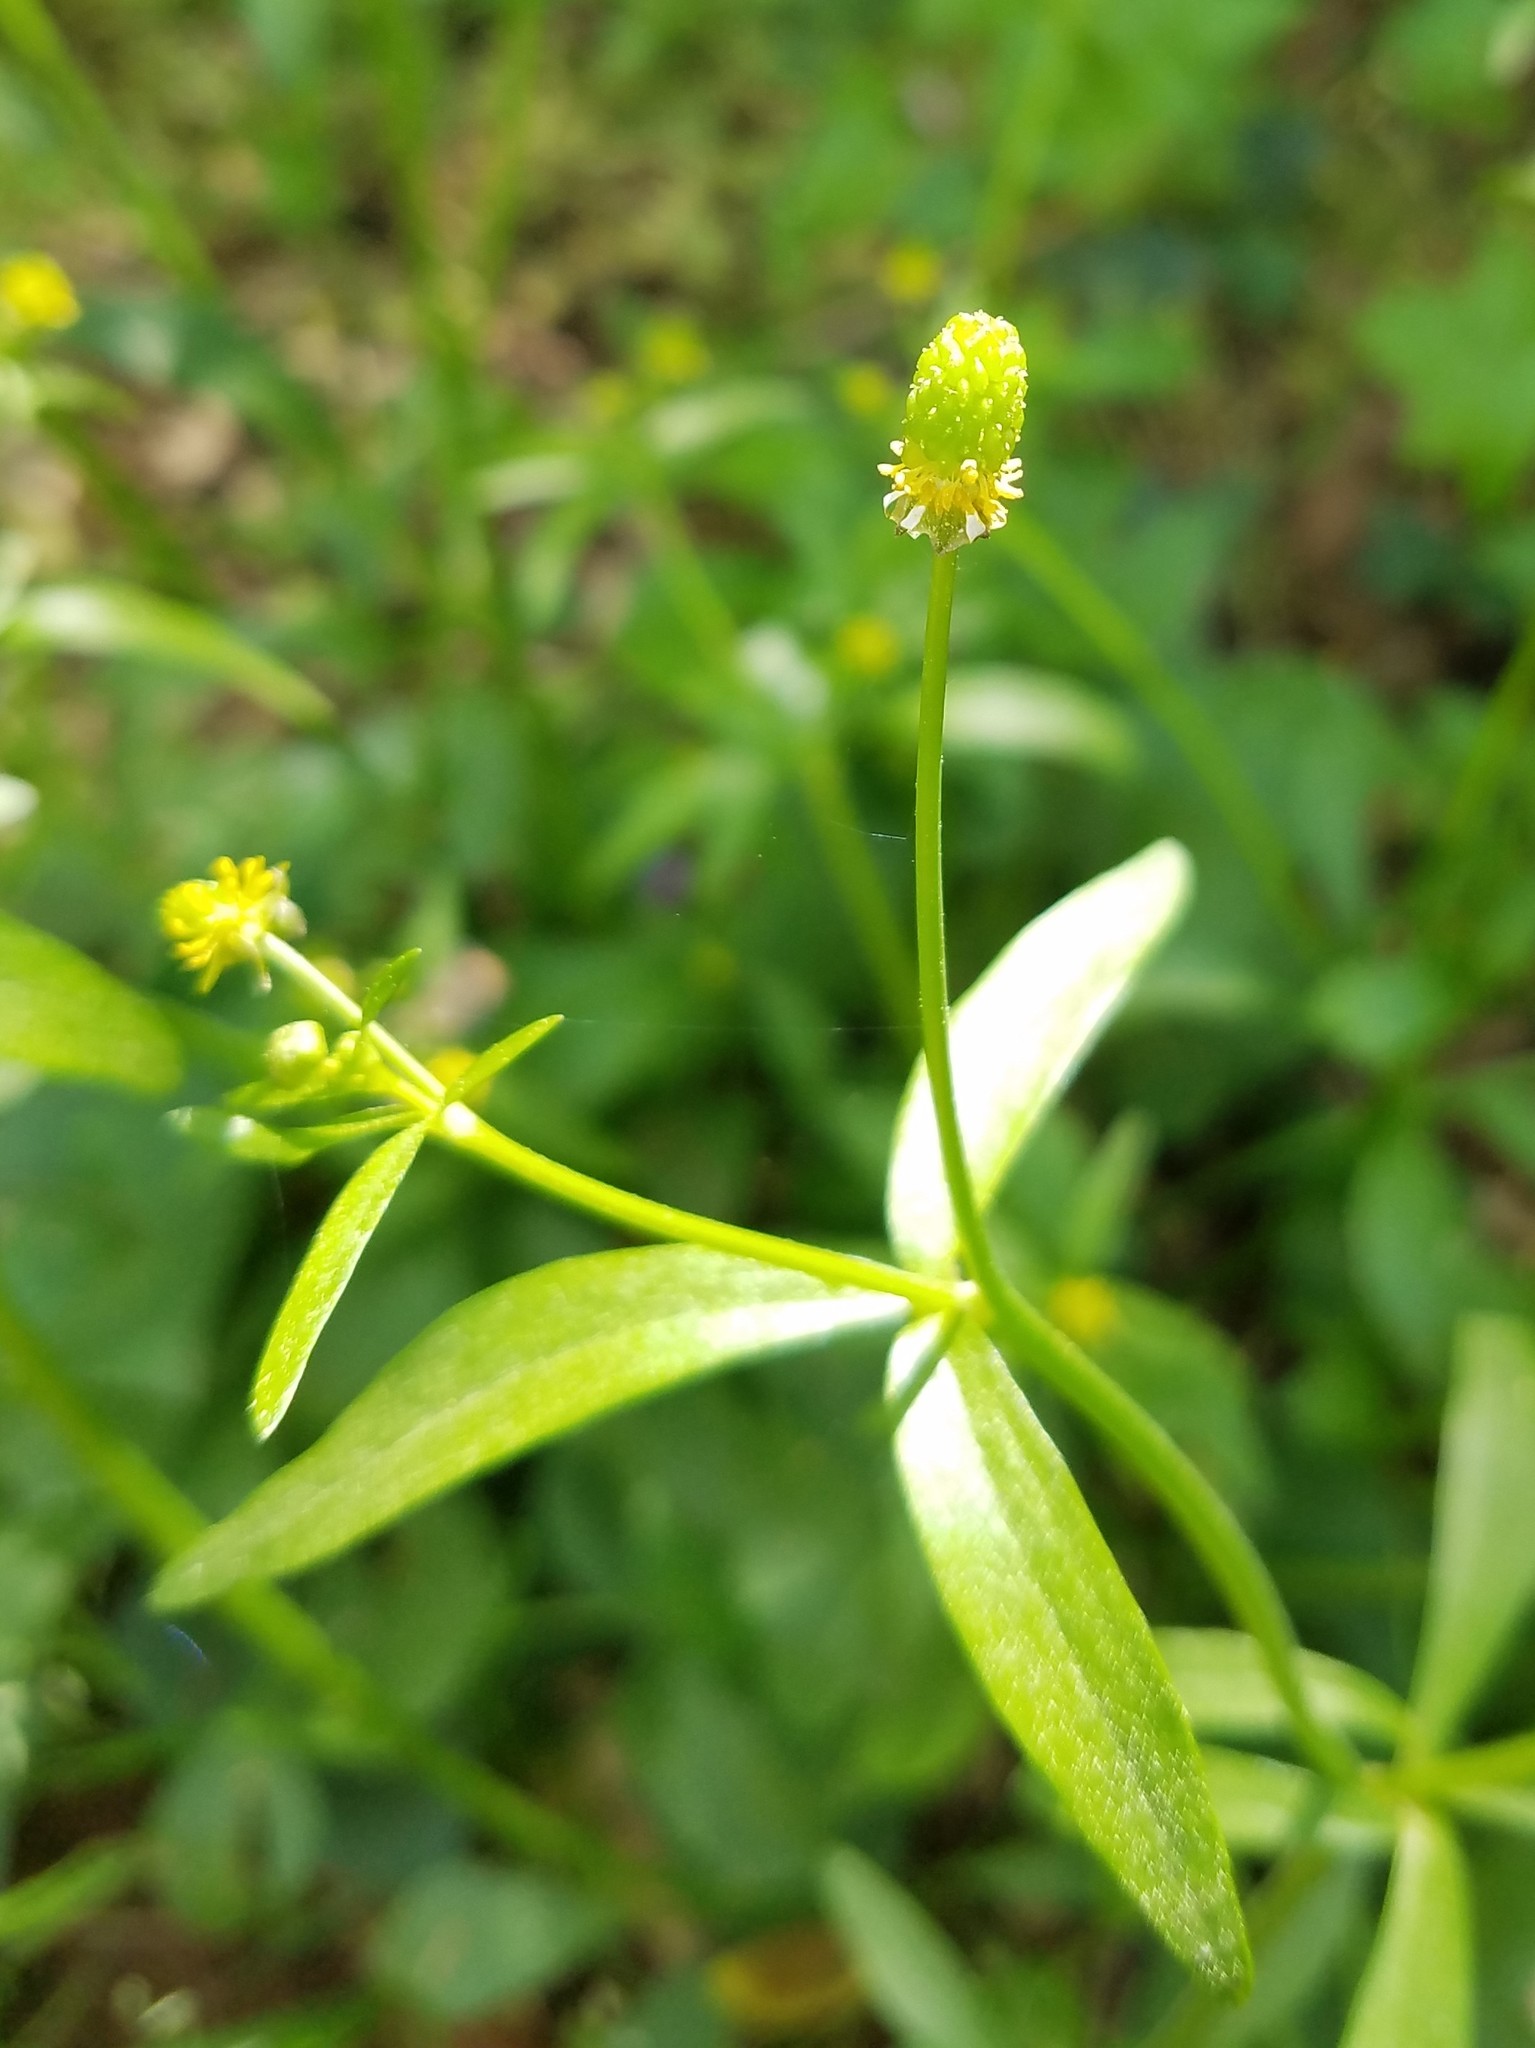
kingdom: Plantae
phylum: Tracheophyta
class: Magnoliopsida
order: Ranunculales
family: Ranunculaceae
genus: Ranunculus
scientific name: Ranunculus abortivus
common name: Early wood buttercup
